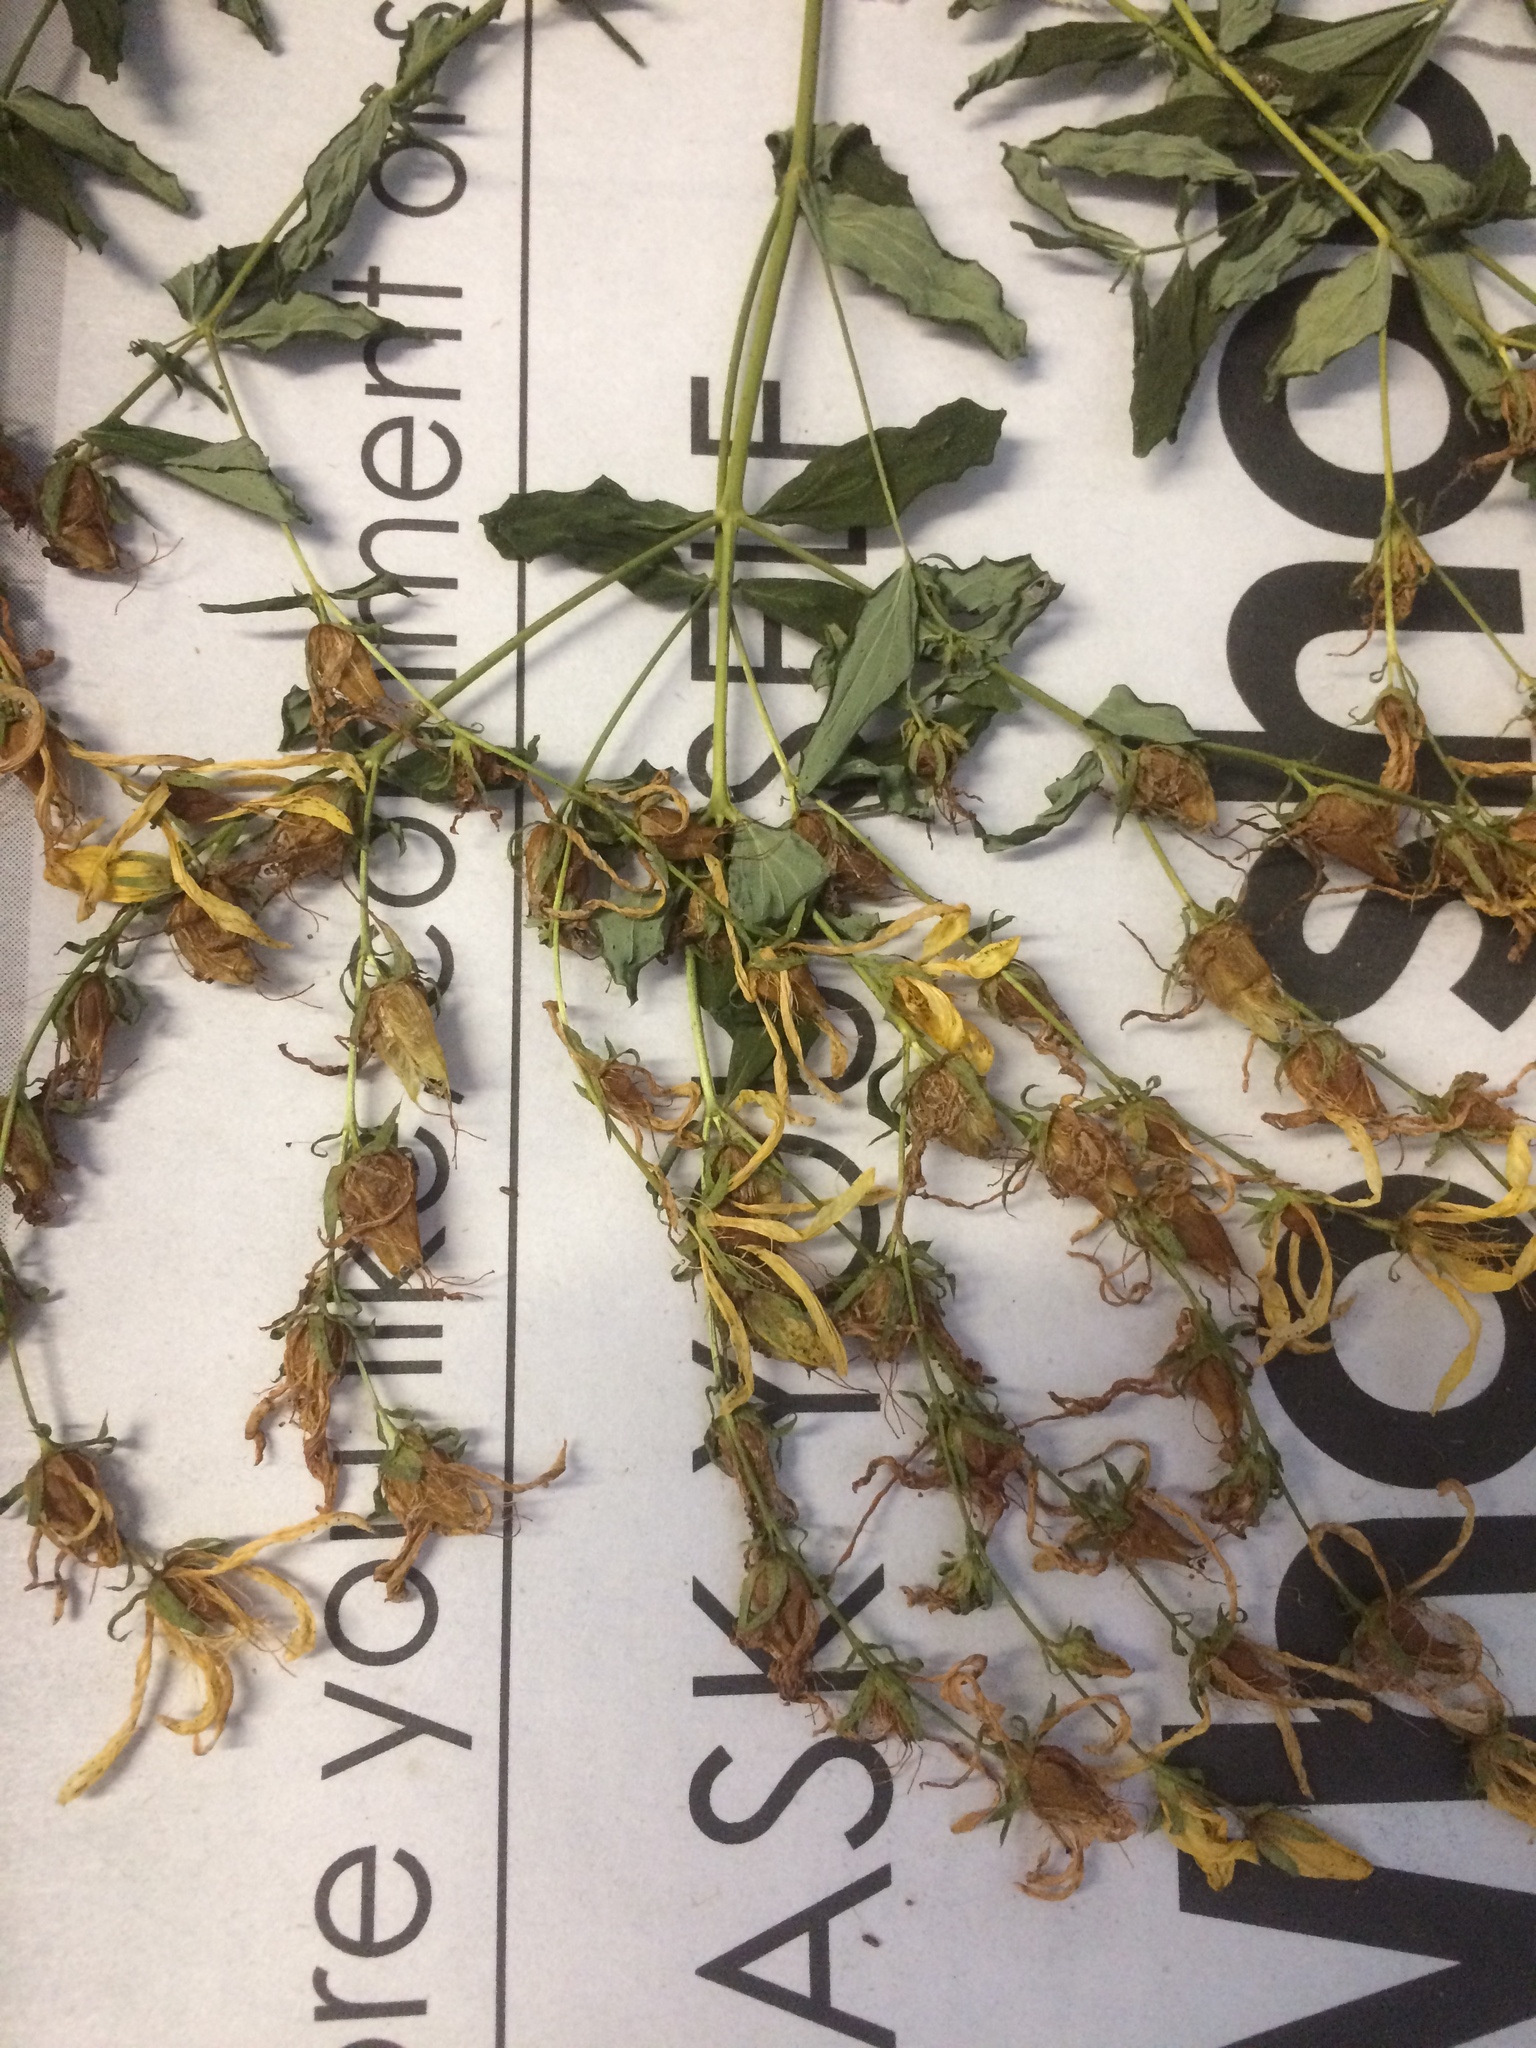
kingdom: Plantae
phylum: Tracheophyta
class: Magnoliopsida
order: Malpighiales
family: Hypericaceae
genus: Hypericum
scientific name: Hypericum perforatum
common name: Common st. johnswort
